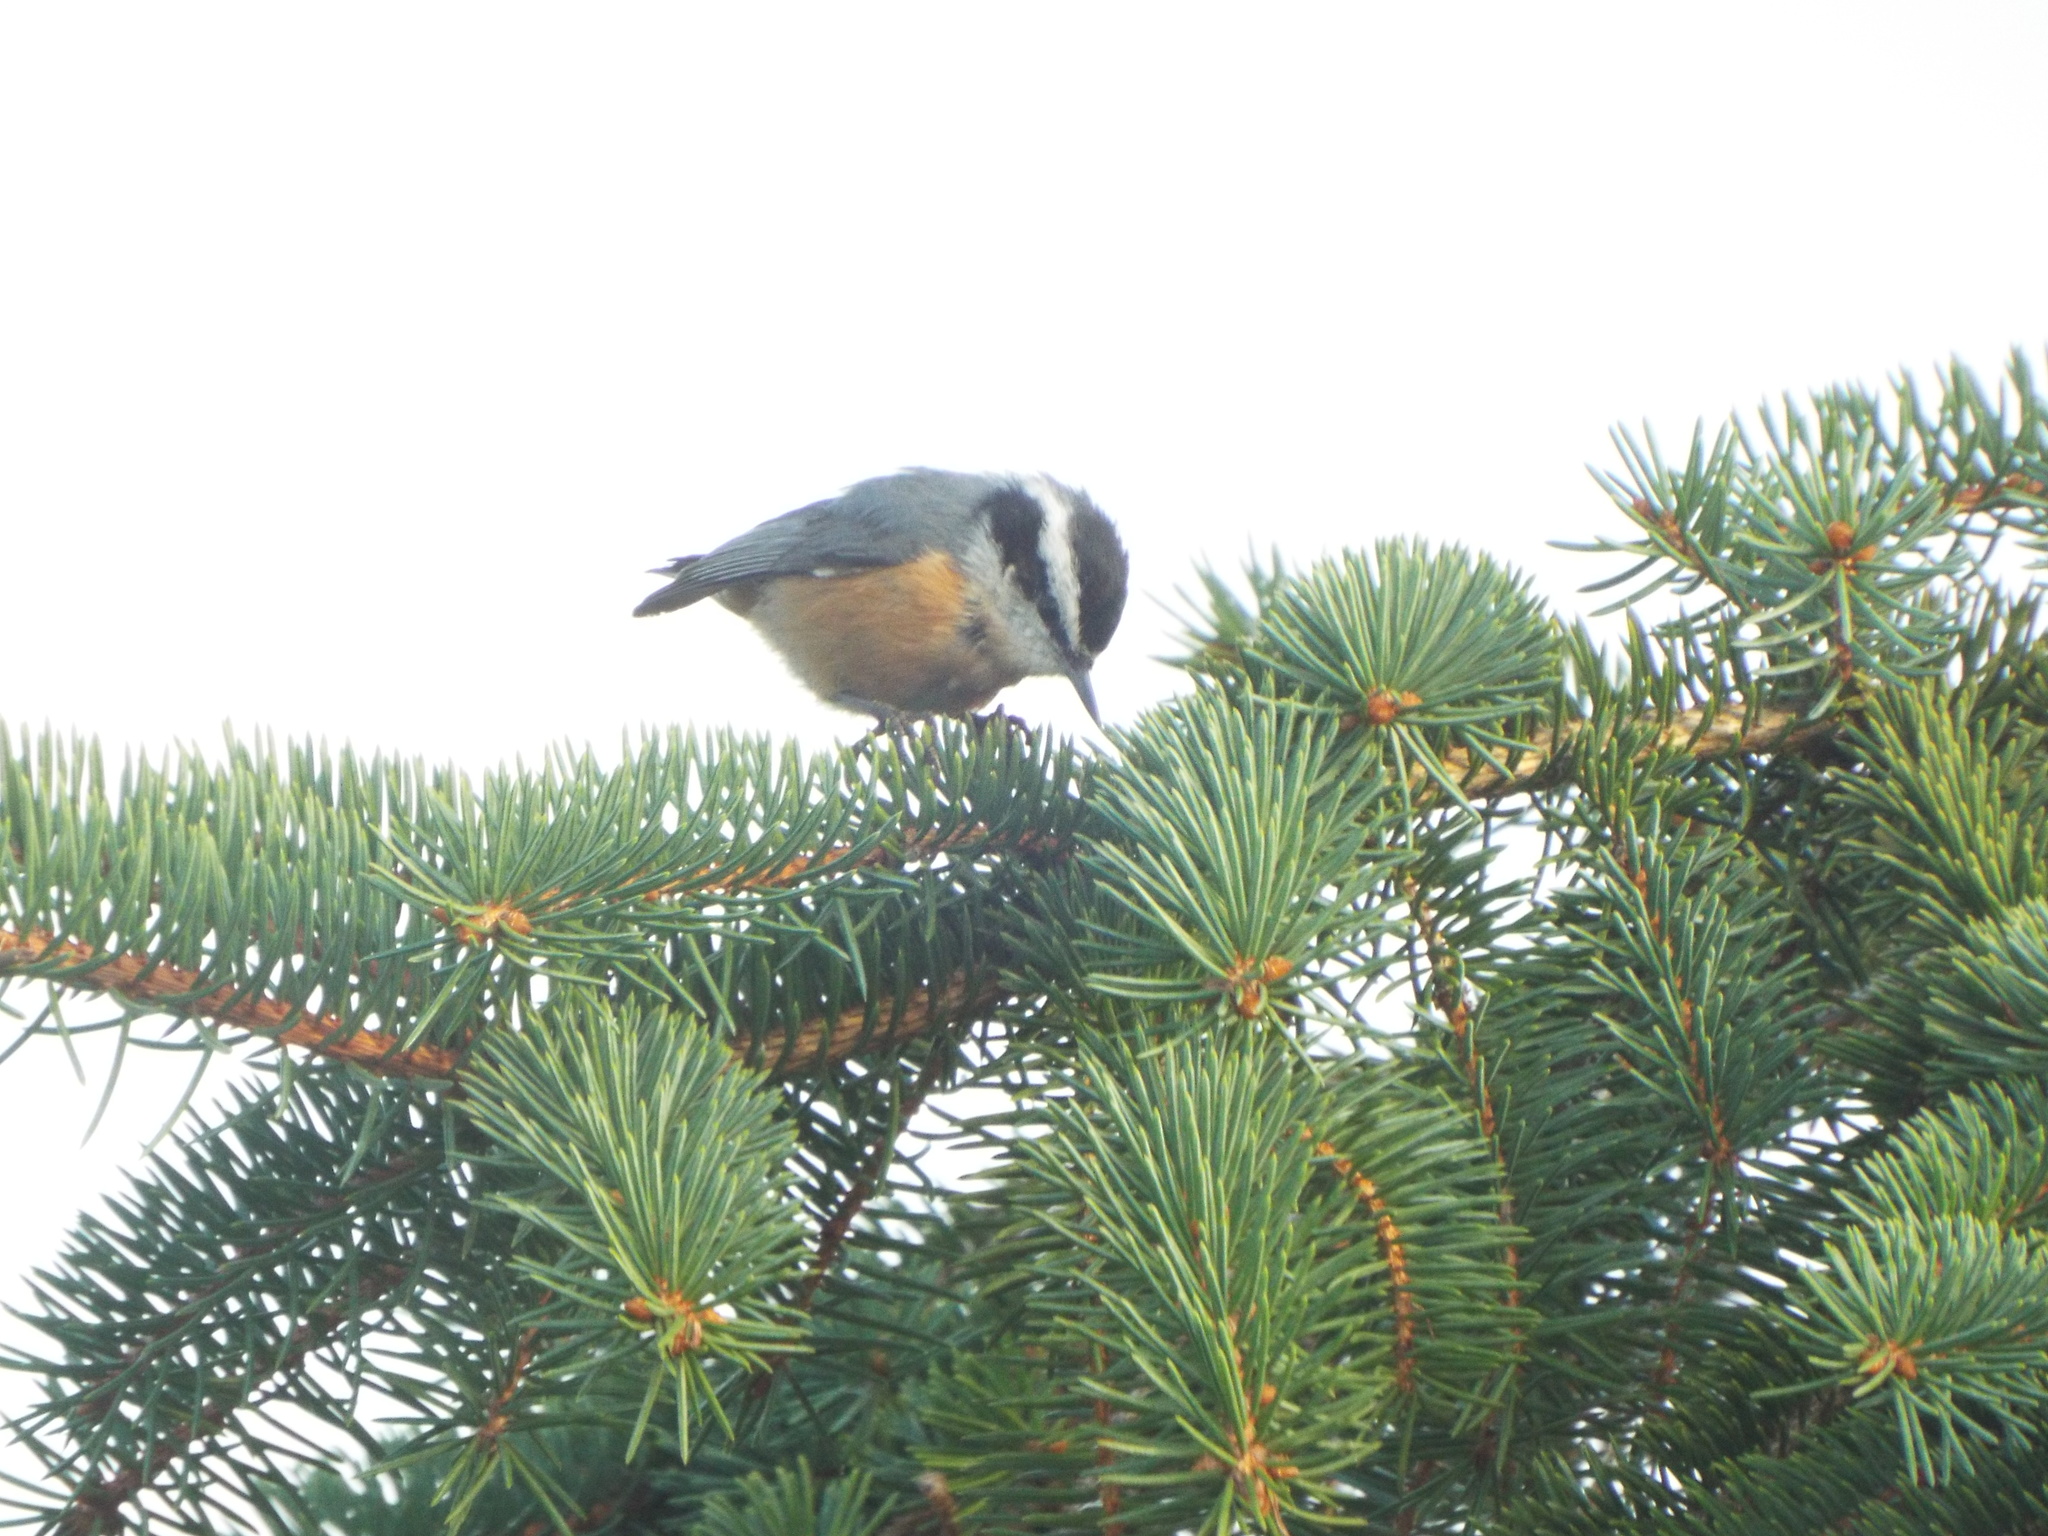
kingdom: Animalia
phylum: Chordata
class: Aves
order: Passeriformes
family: Sittidae
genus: Sitta
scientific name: Sitta canadensis
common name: Red-breasted nuthatch
